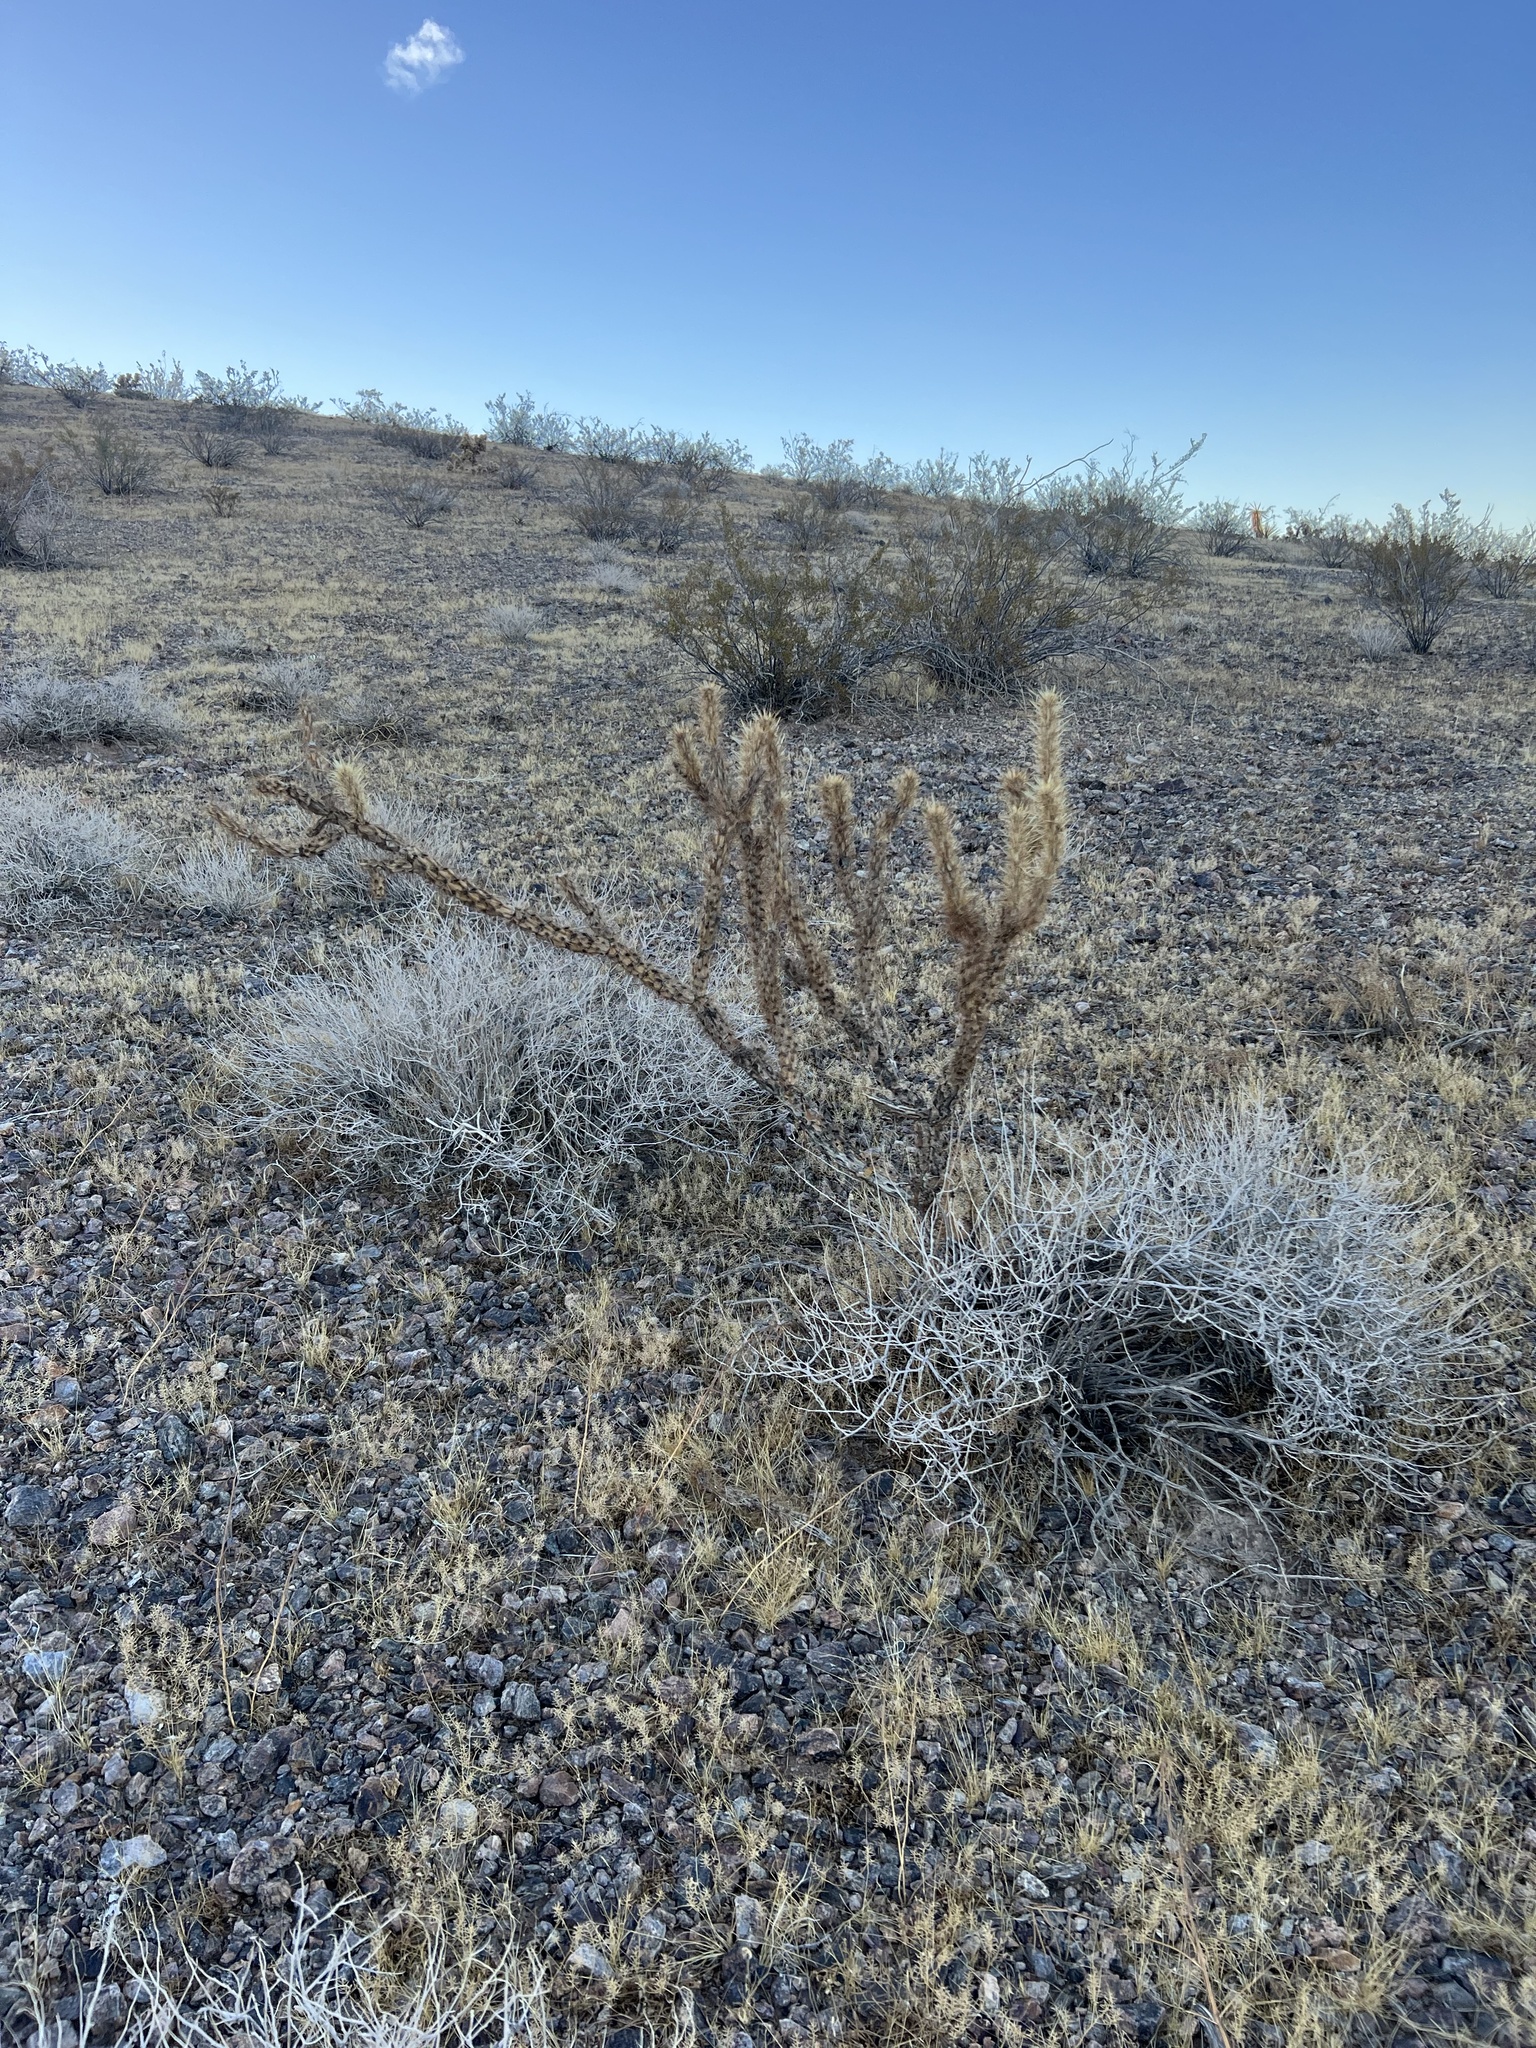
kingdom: Plantae
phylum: Tracheophyta
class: Magnoliopsida
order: Caryophyllales
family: Cactaceae
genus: Cylindropuntia
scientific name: Cylindropuntia acanthocarpa
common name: Buckhorn cholla
